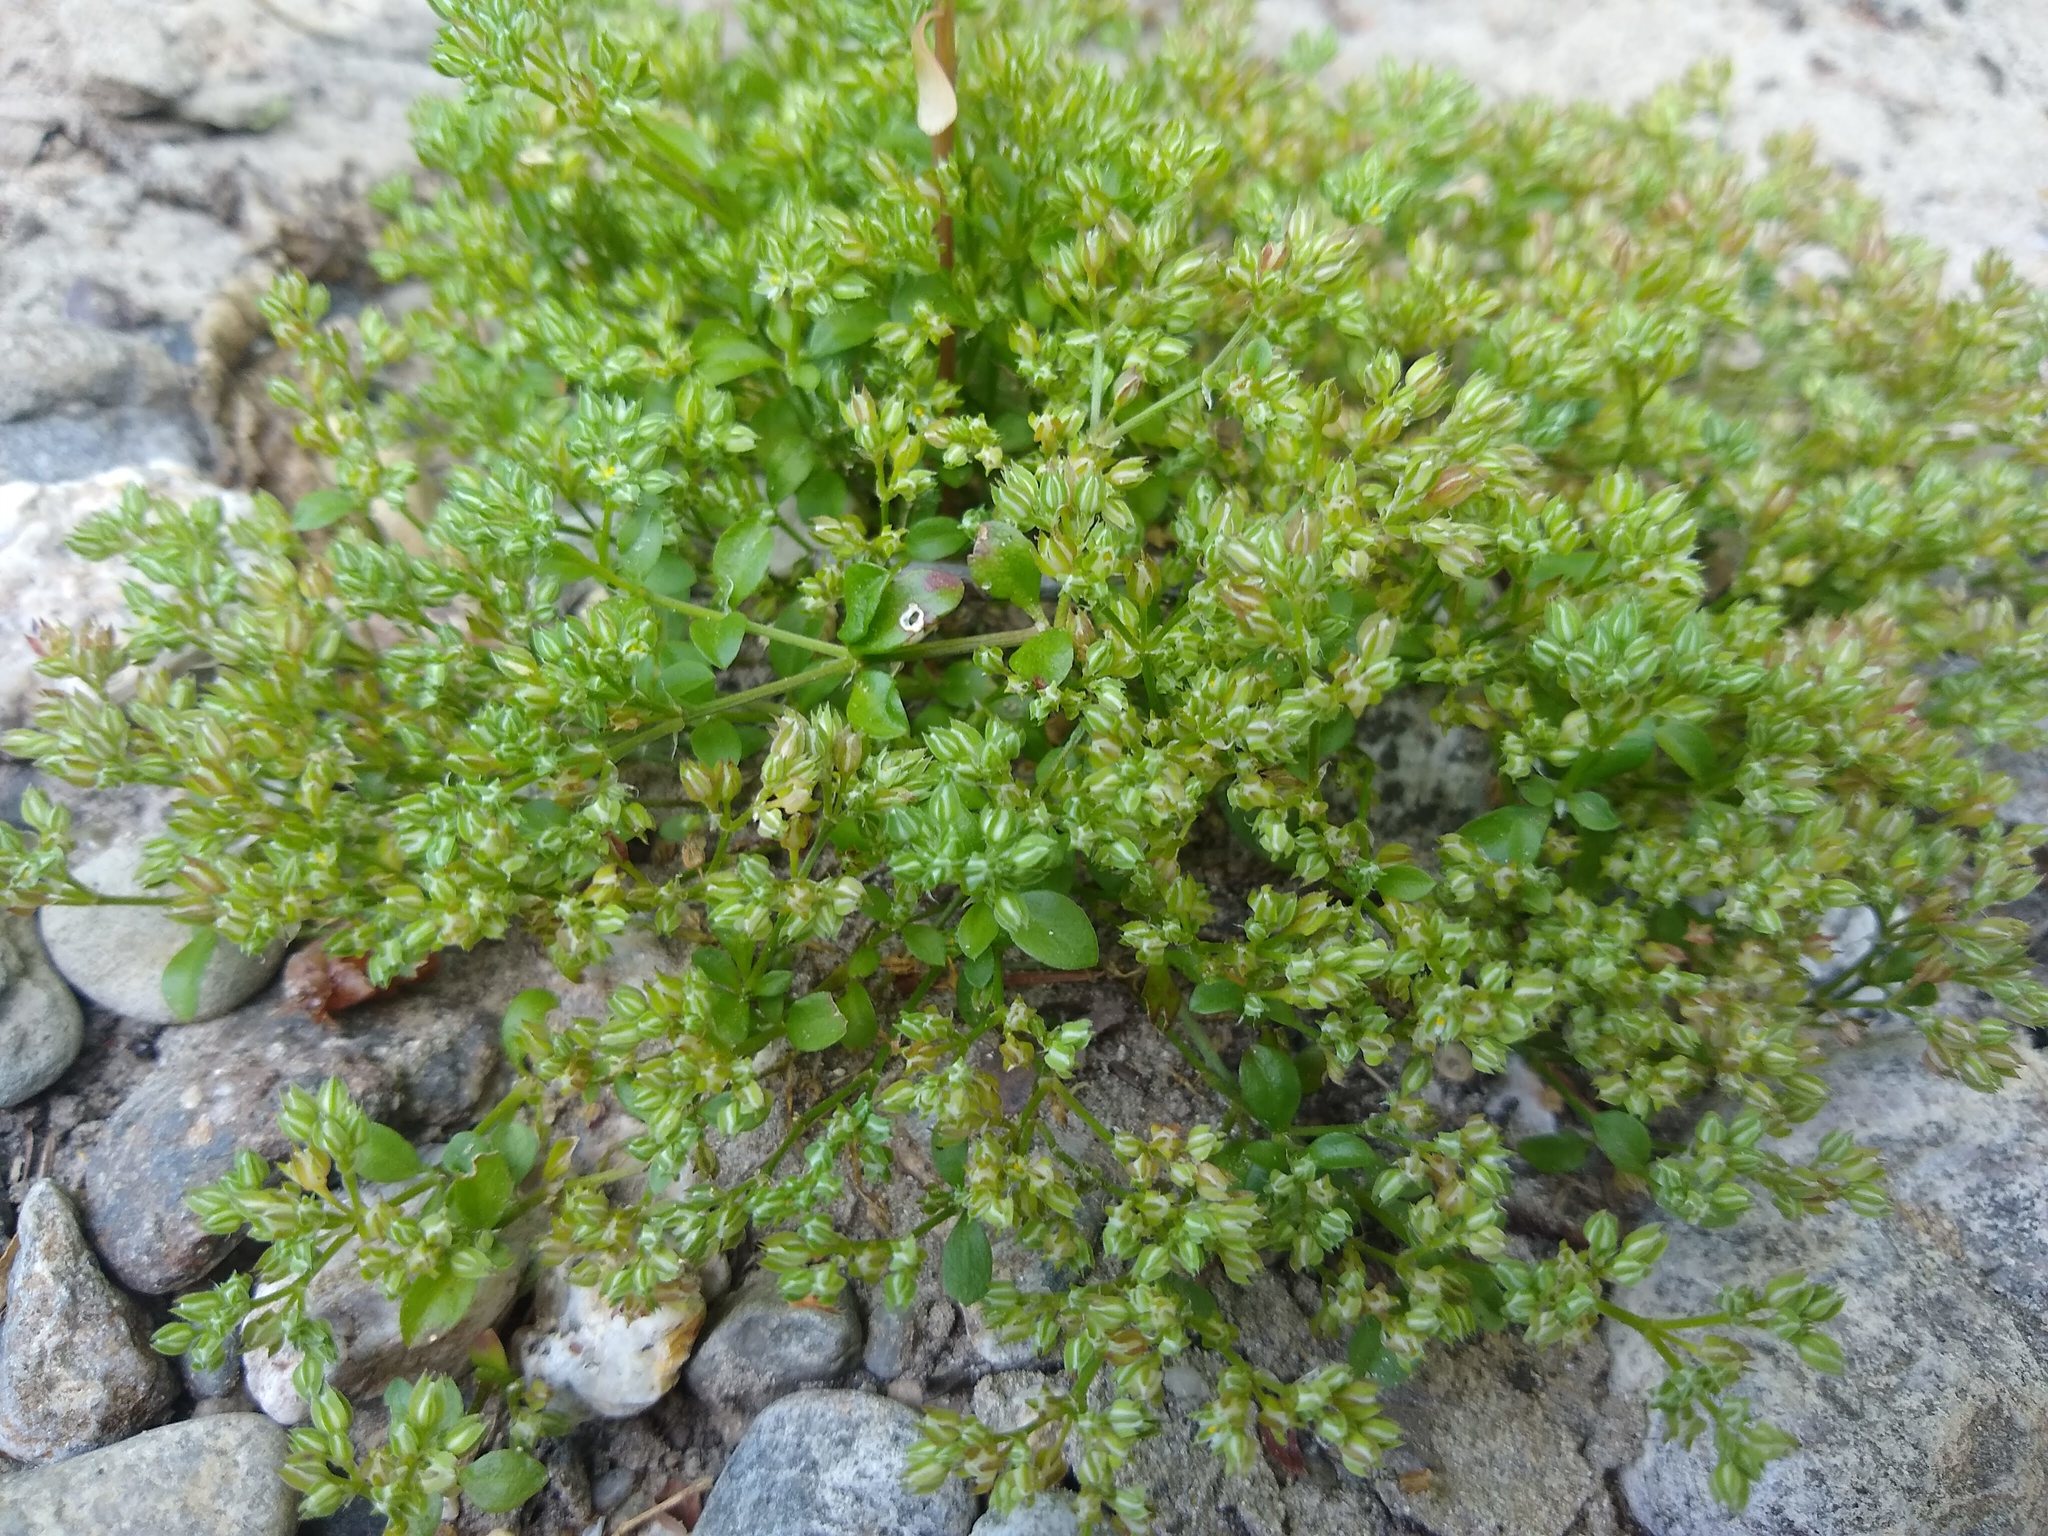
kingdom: Plantae
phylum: Tracheophyta
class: Magnoliopsida
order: Caryophyllales
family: Caryophyllaceae
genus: Polycarpon
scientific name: Polycarpon tetraphyllum
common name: Four-leaved all-seed
